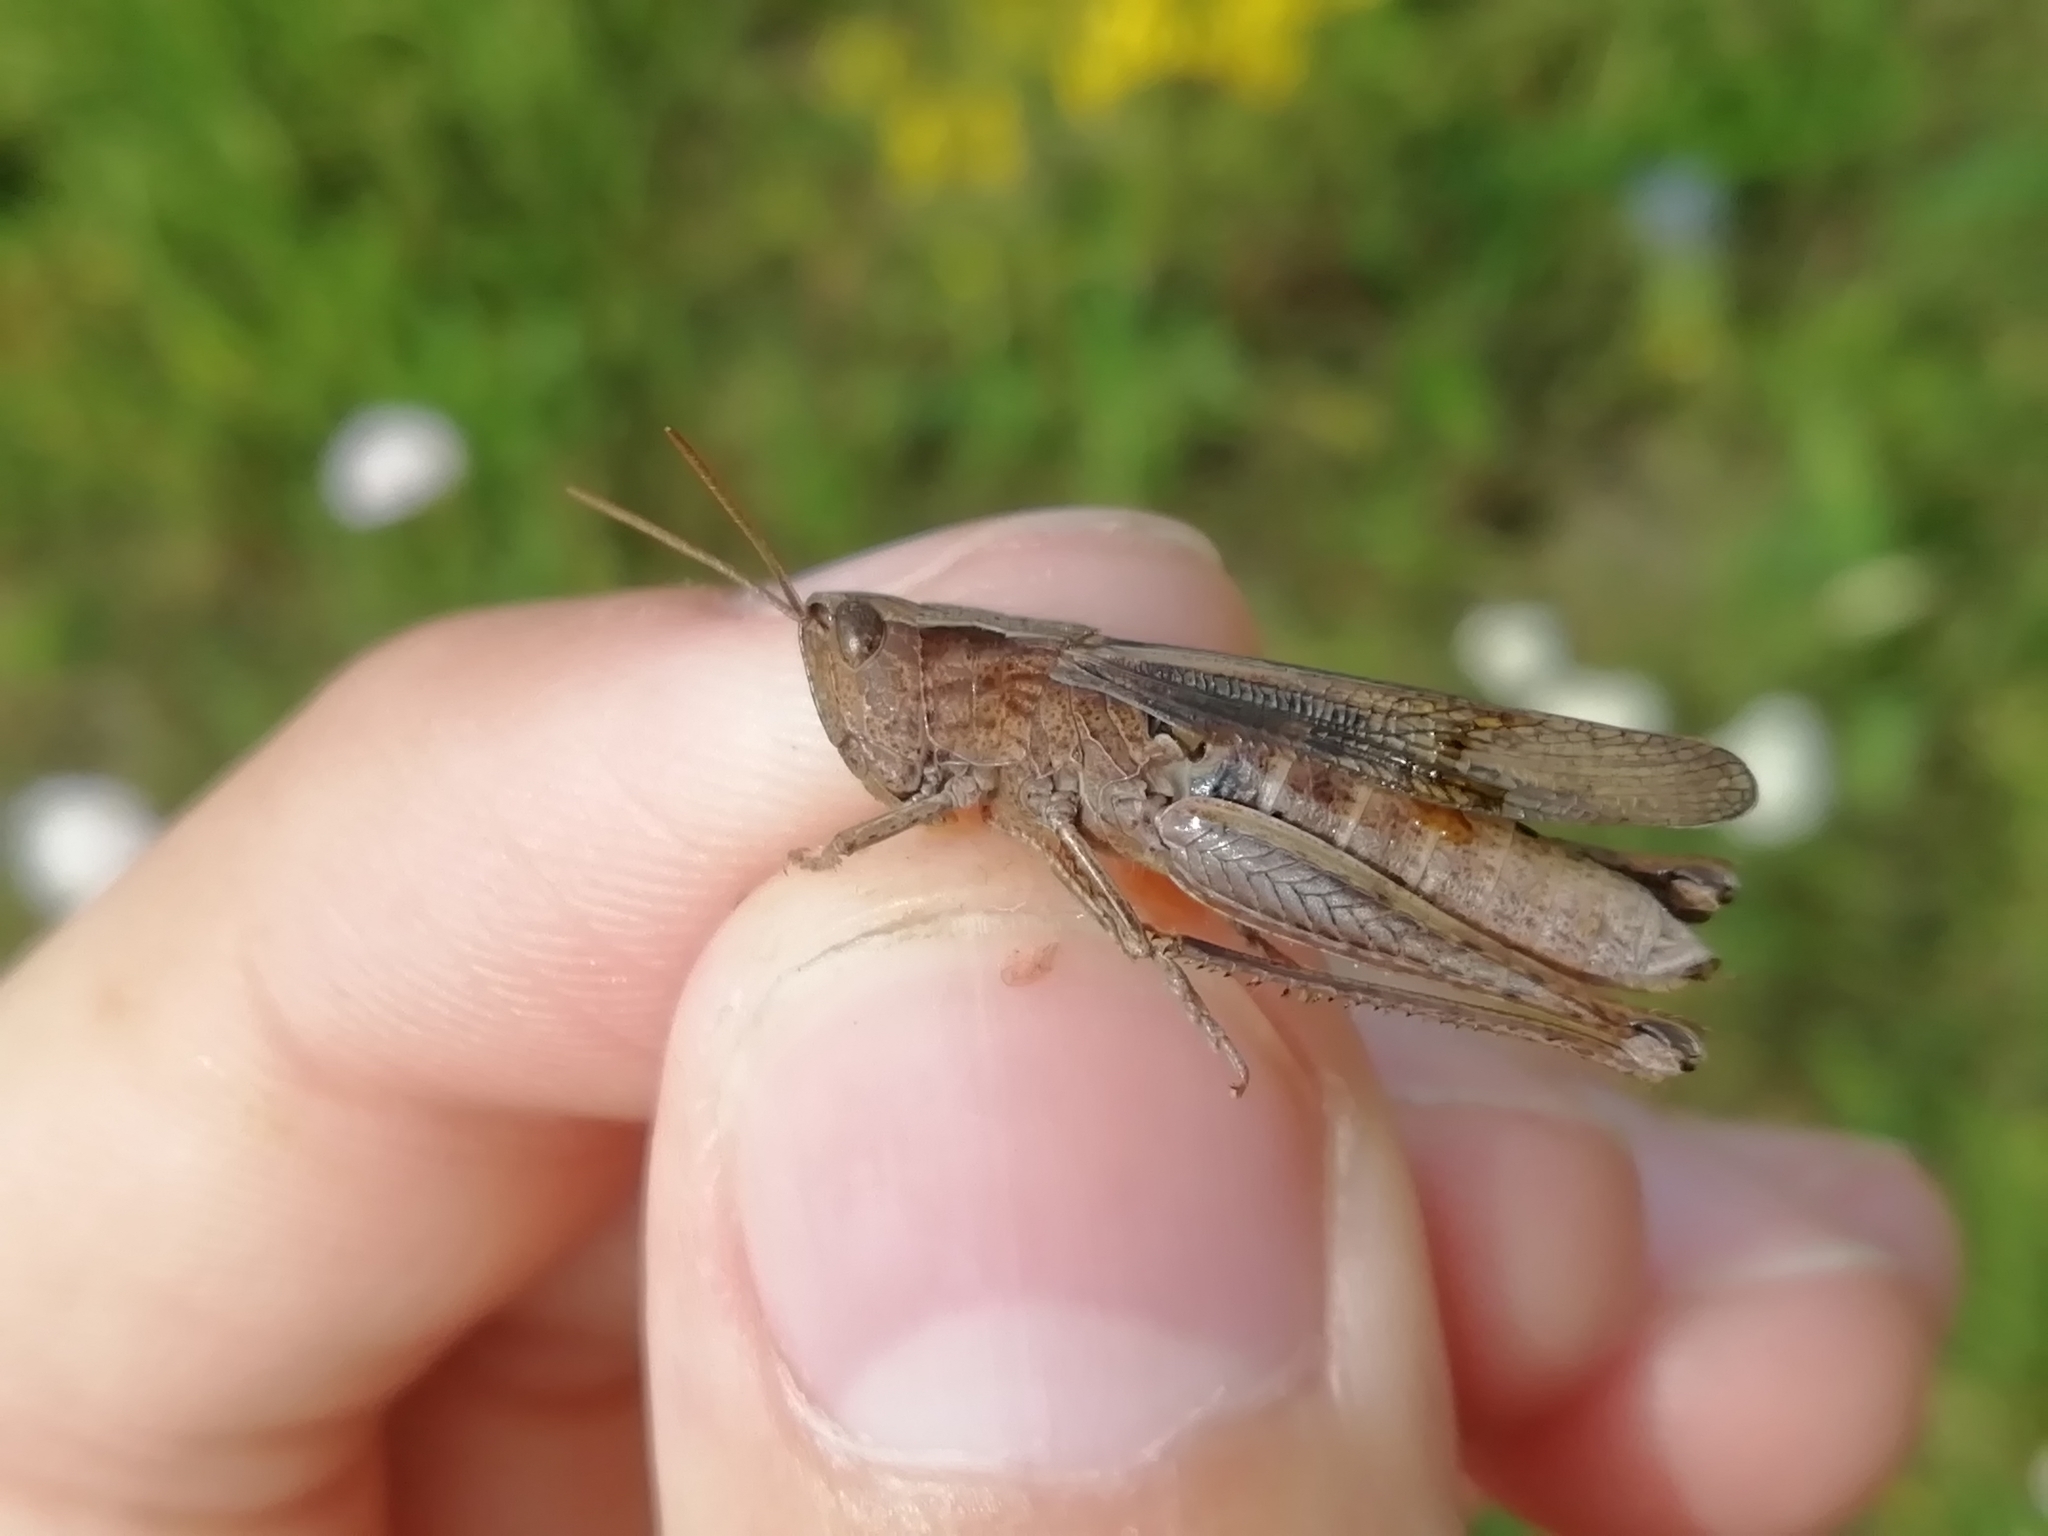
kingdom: Animalia
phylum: Arthropoda
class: Insecta
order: Orthoptera
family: Acrididae
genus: Chorthippus
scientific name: Chorthippus dorsatus
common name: Steppe grasshopper
